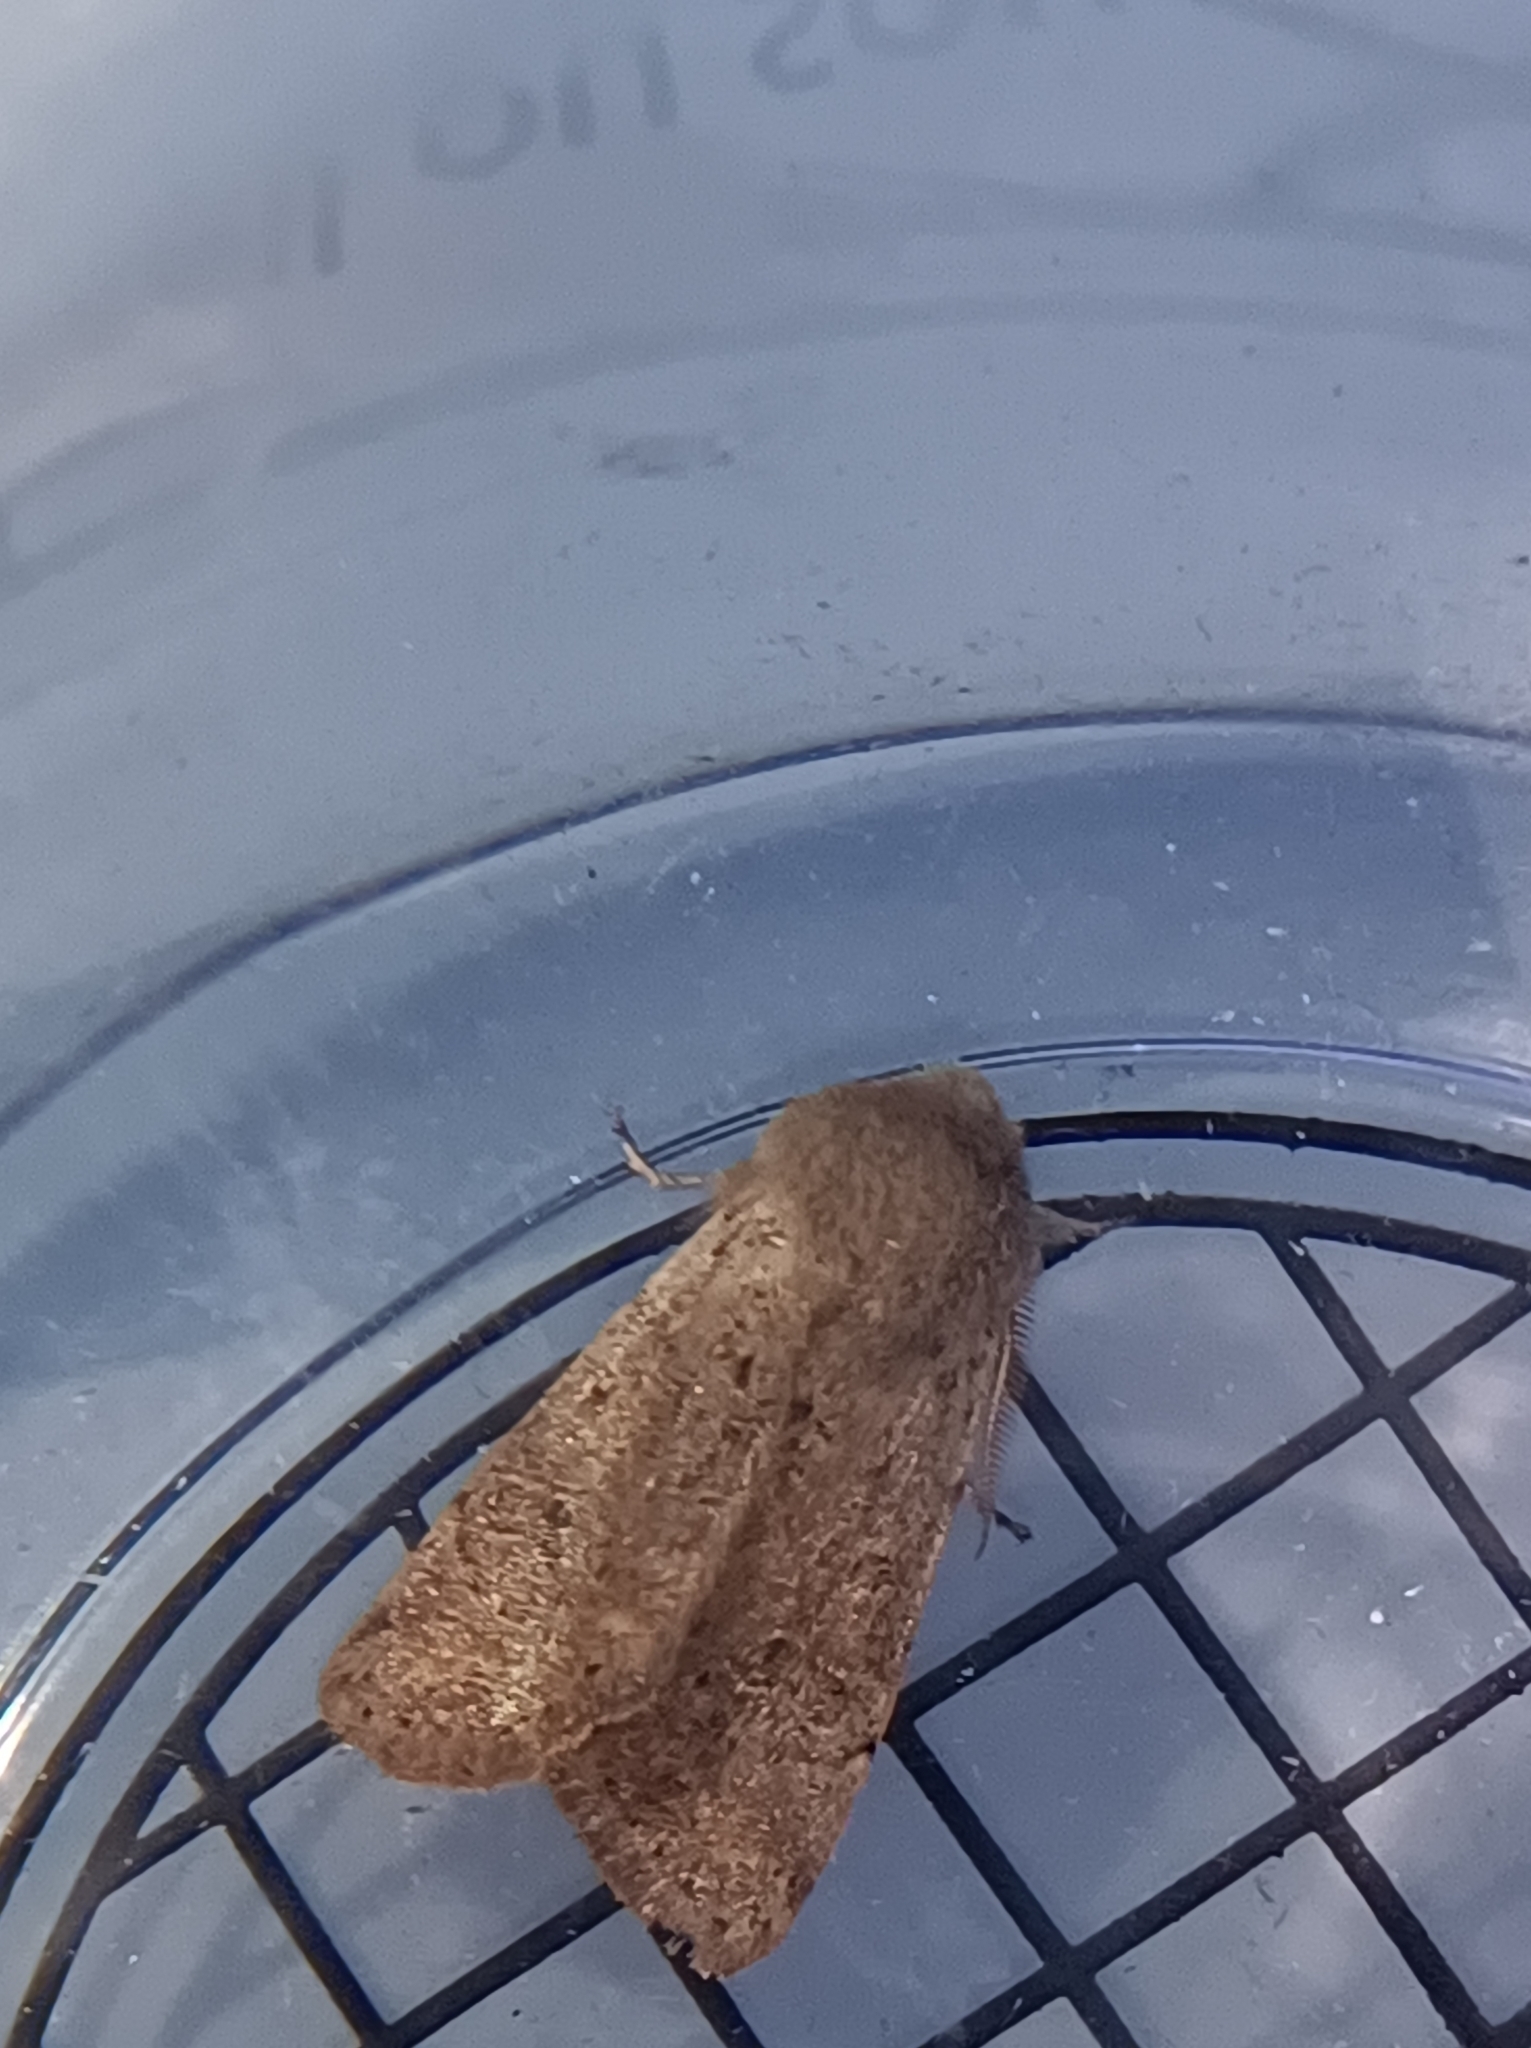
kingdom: Animalia
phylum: Arthropoda
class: Insecta
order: Lepidoptera
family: Noctuidae
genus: Orthosia
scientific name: Orthosia cruda
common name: Small quaker
